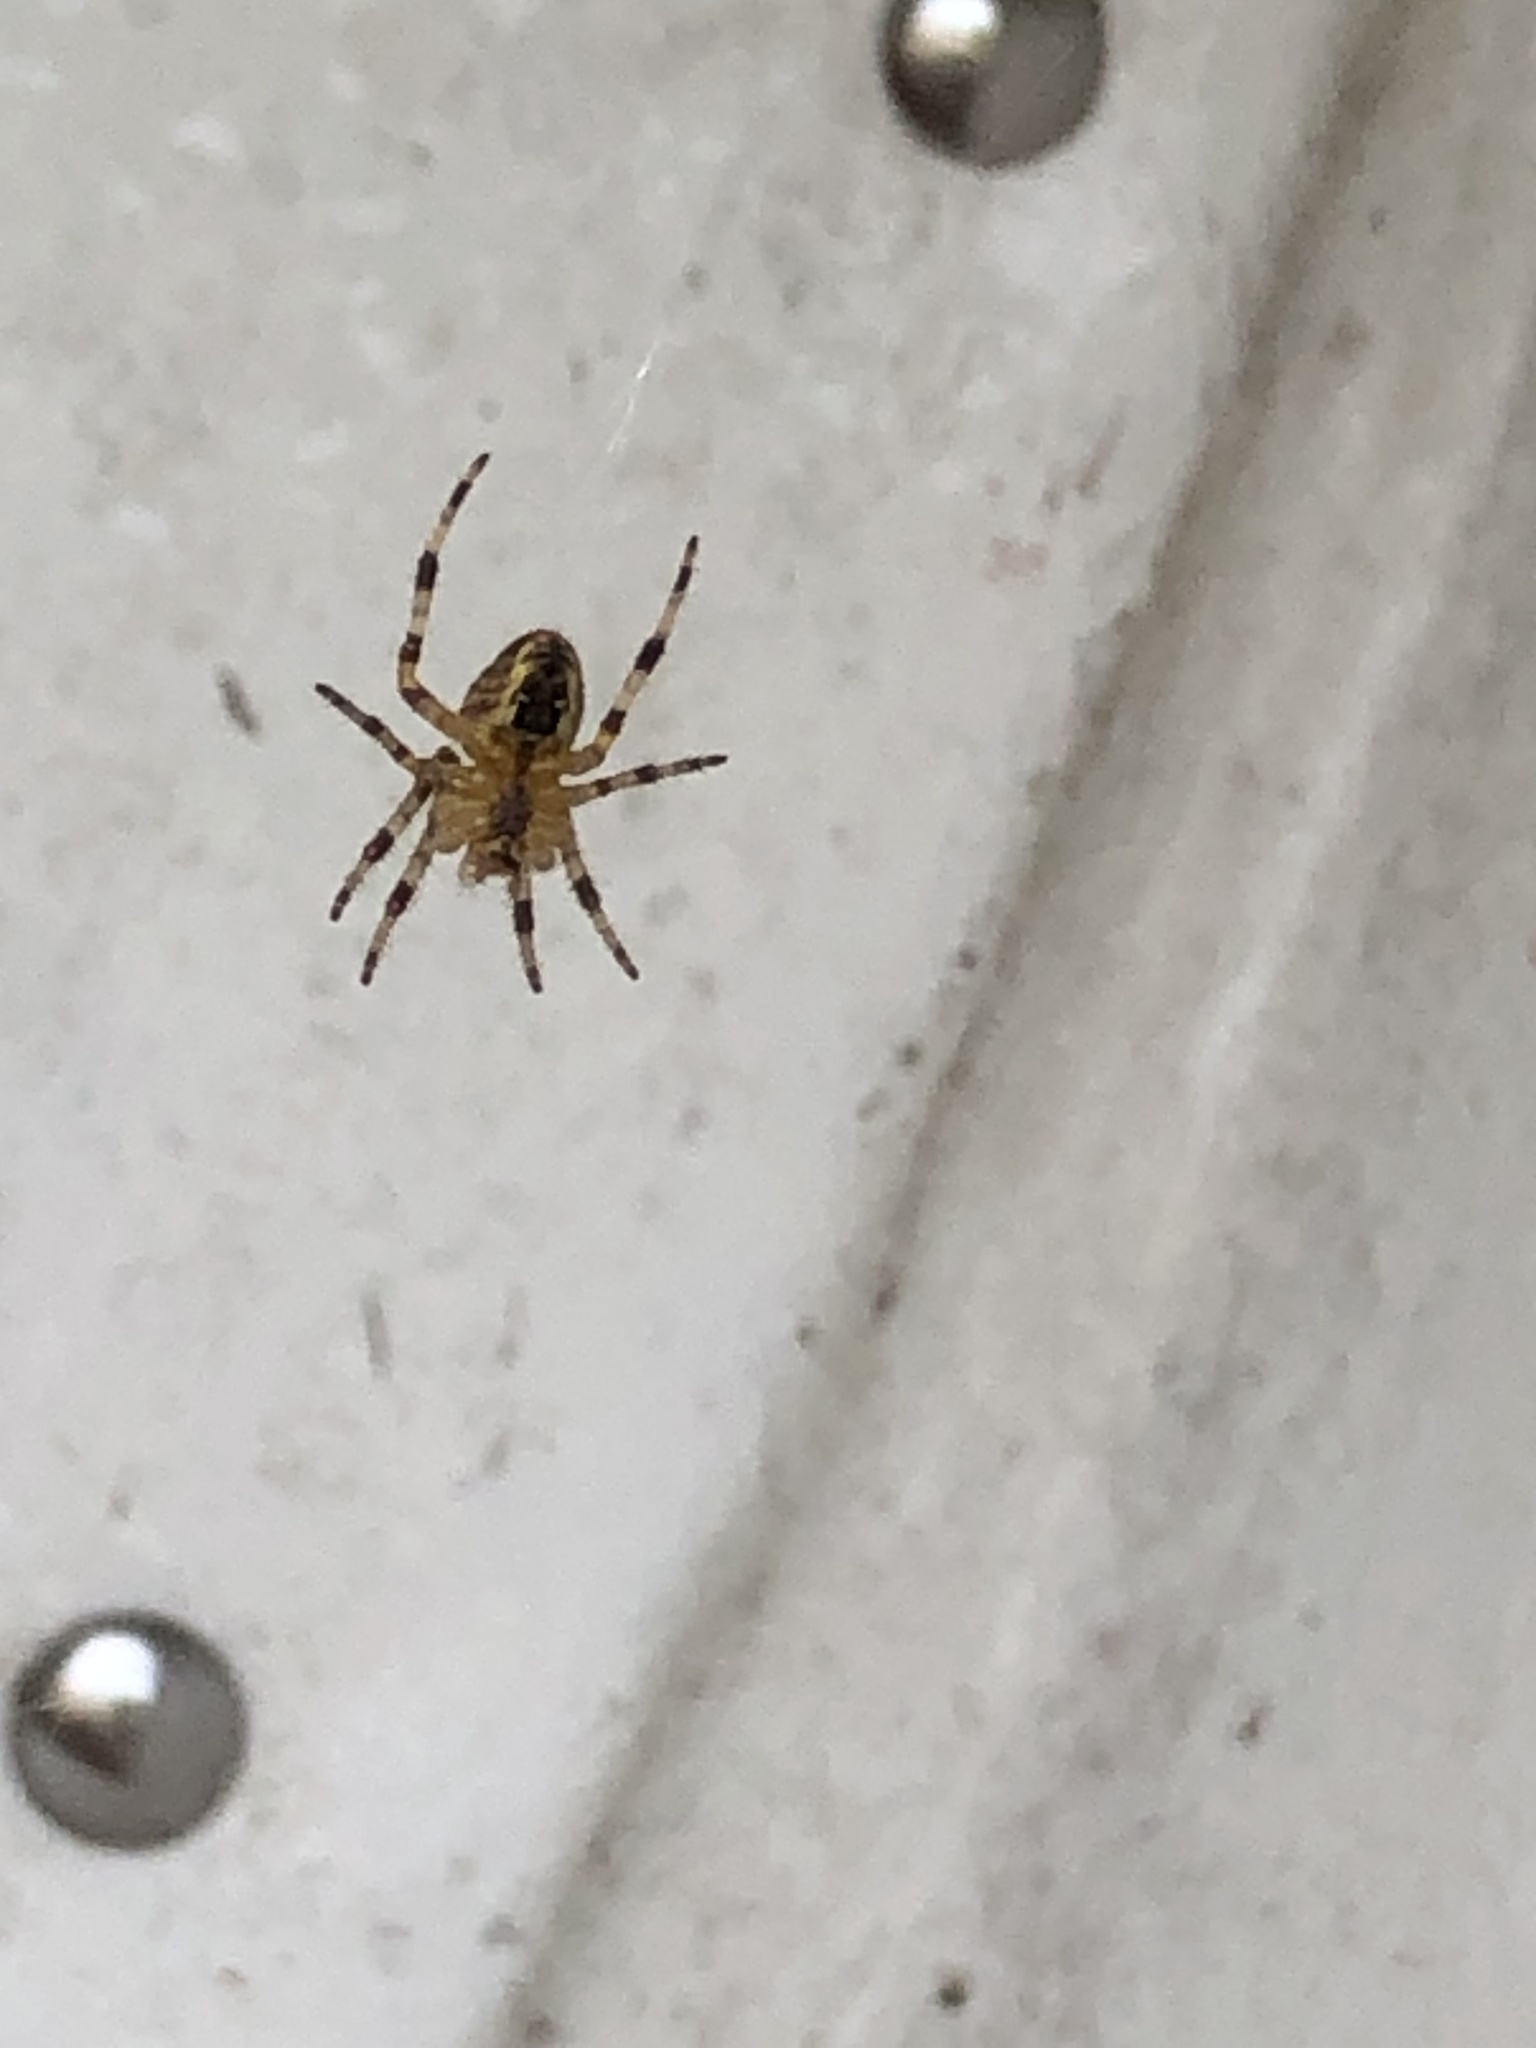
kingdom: Animalia
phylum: Arthropoda
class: Arachnida
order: Araneae
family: Araneidae
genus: Araneus
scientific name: Araneus diadematus
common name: Cross orbweaver
